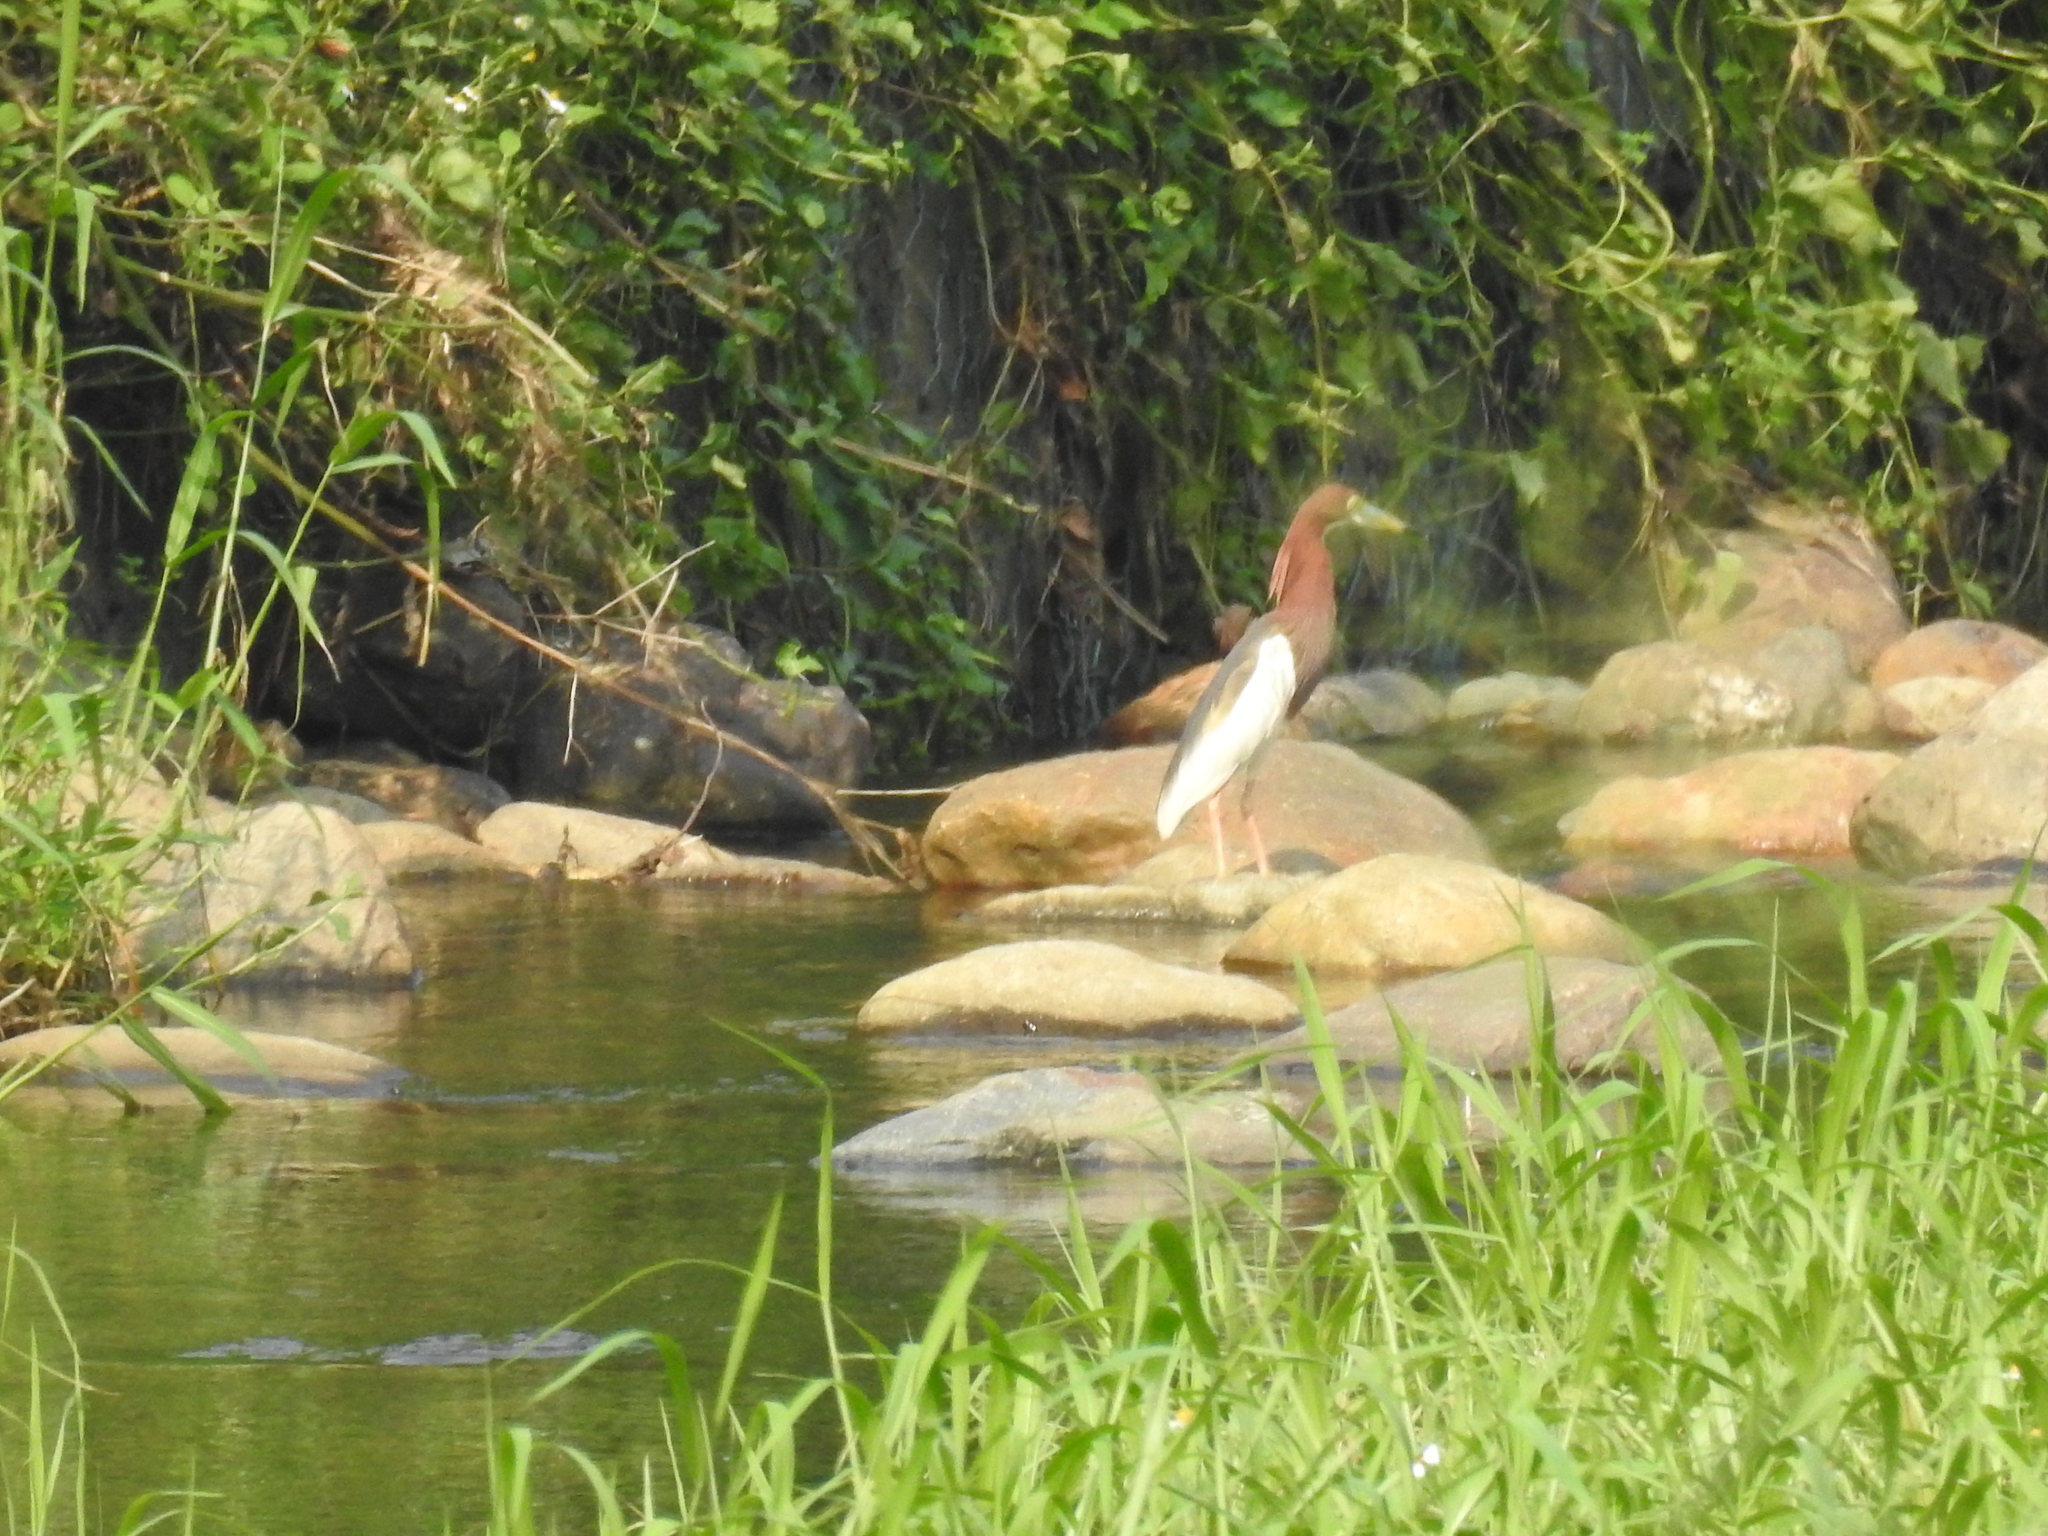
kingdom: Animalia
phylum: Chordata
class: Aves
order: Pelecaniformes
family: Ardeidae
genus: Ardeola
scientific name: Ardeola bacchus
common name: Chinese pond heron
